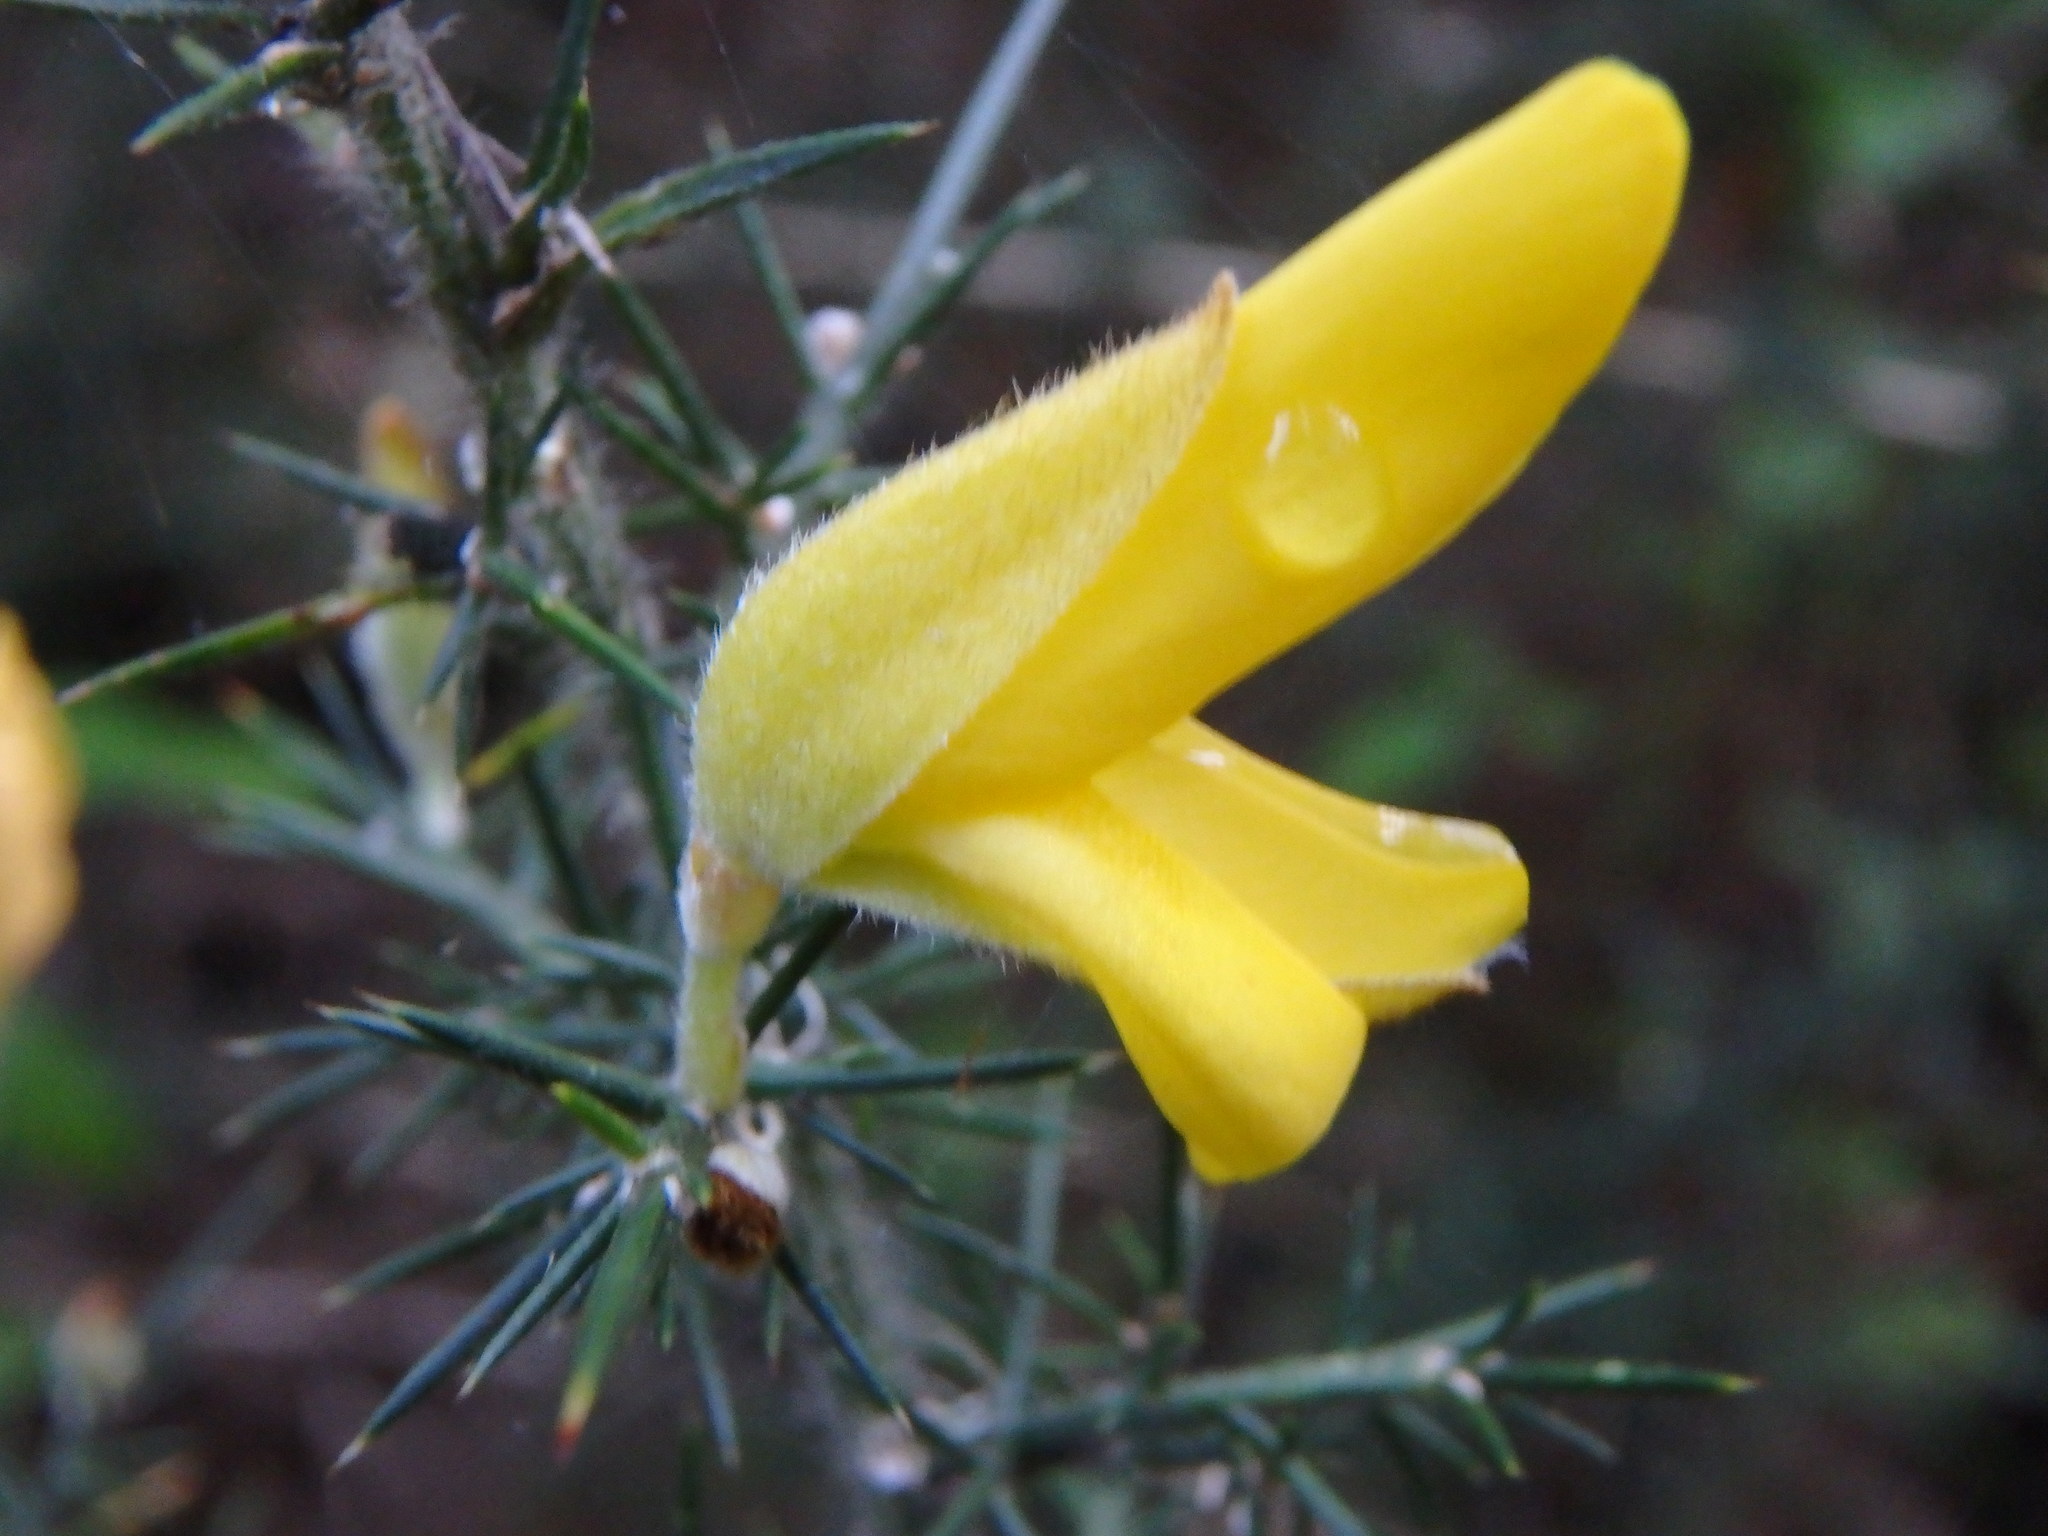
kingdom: Plantae
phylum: Tracheophyta
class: Magnoliopsida
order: Fabales
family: Fabaceae
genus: Ulex
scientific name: Ulex europaeus
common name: Common gorse
